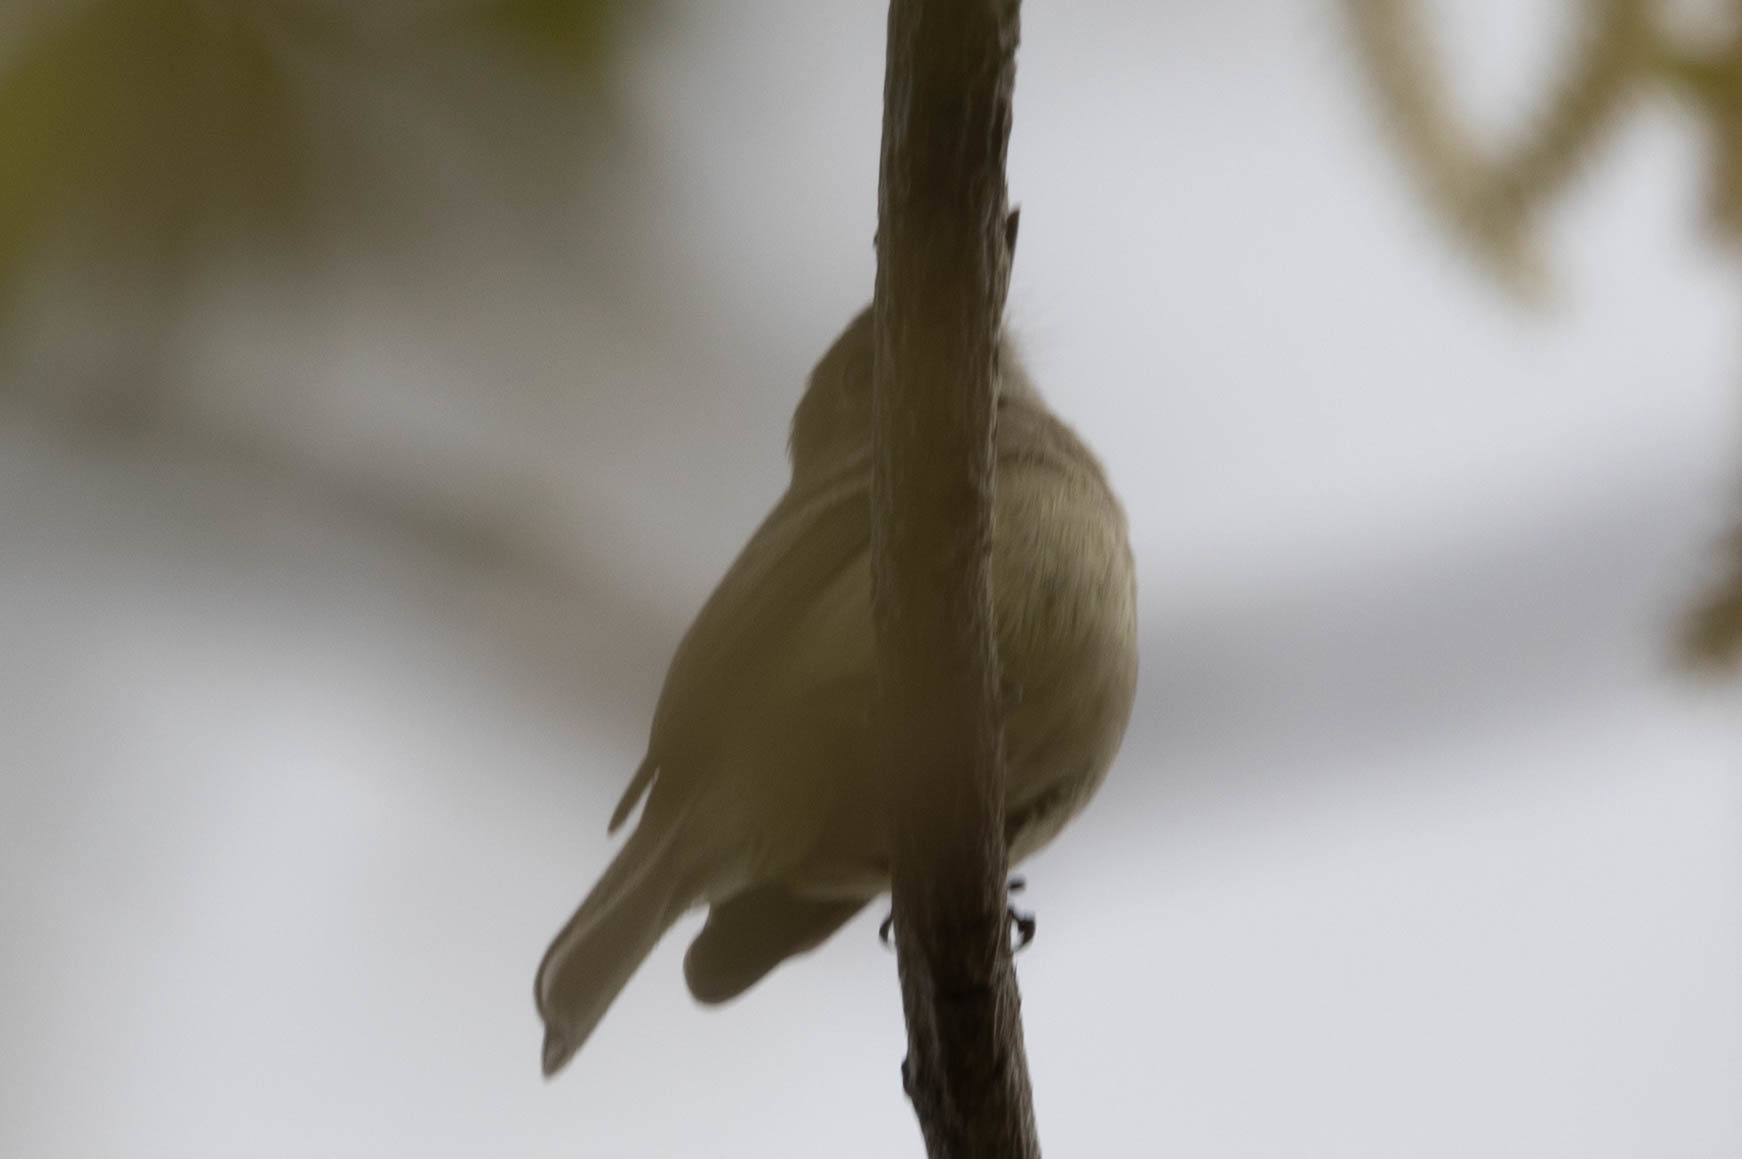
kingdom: Animalia
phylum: Chordata
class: Aves
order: Passeriformes
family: Tyrannidae
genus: Empidonax
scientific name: Empidonax oberholseri
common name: Dusky flycatcher
